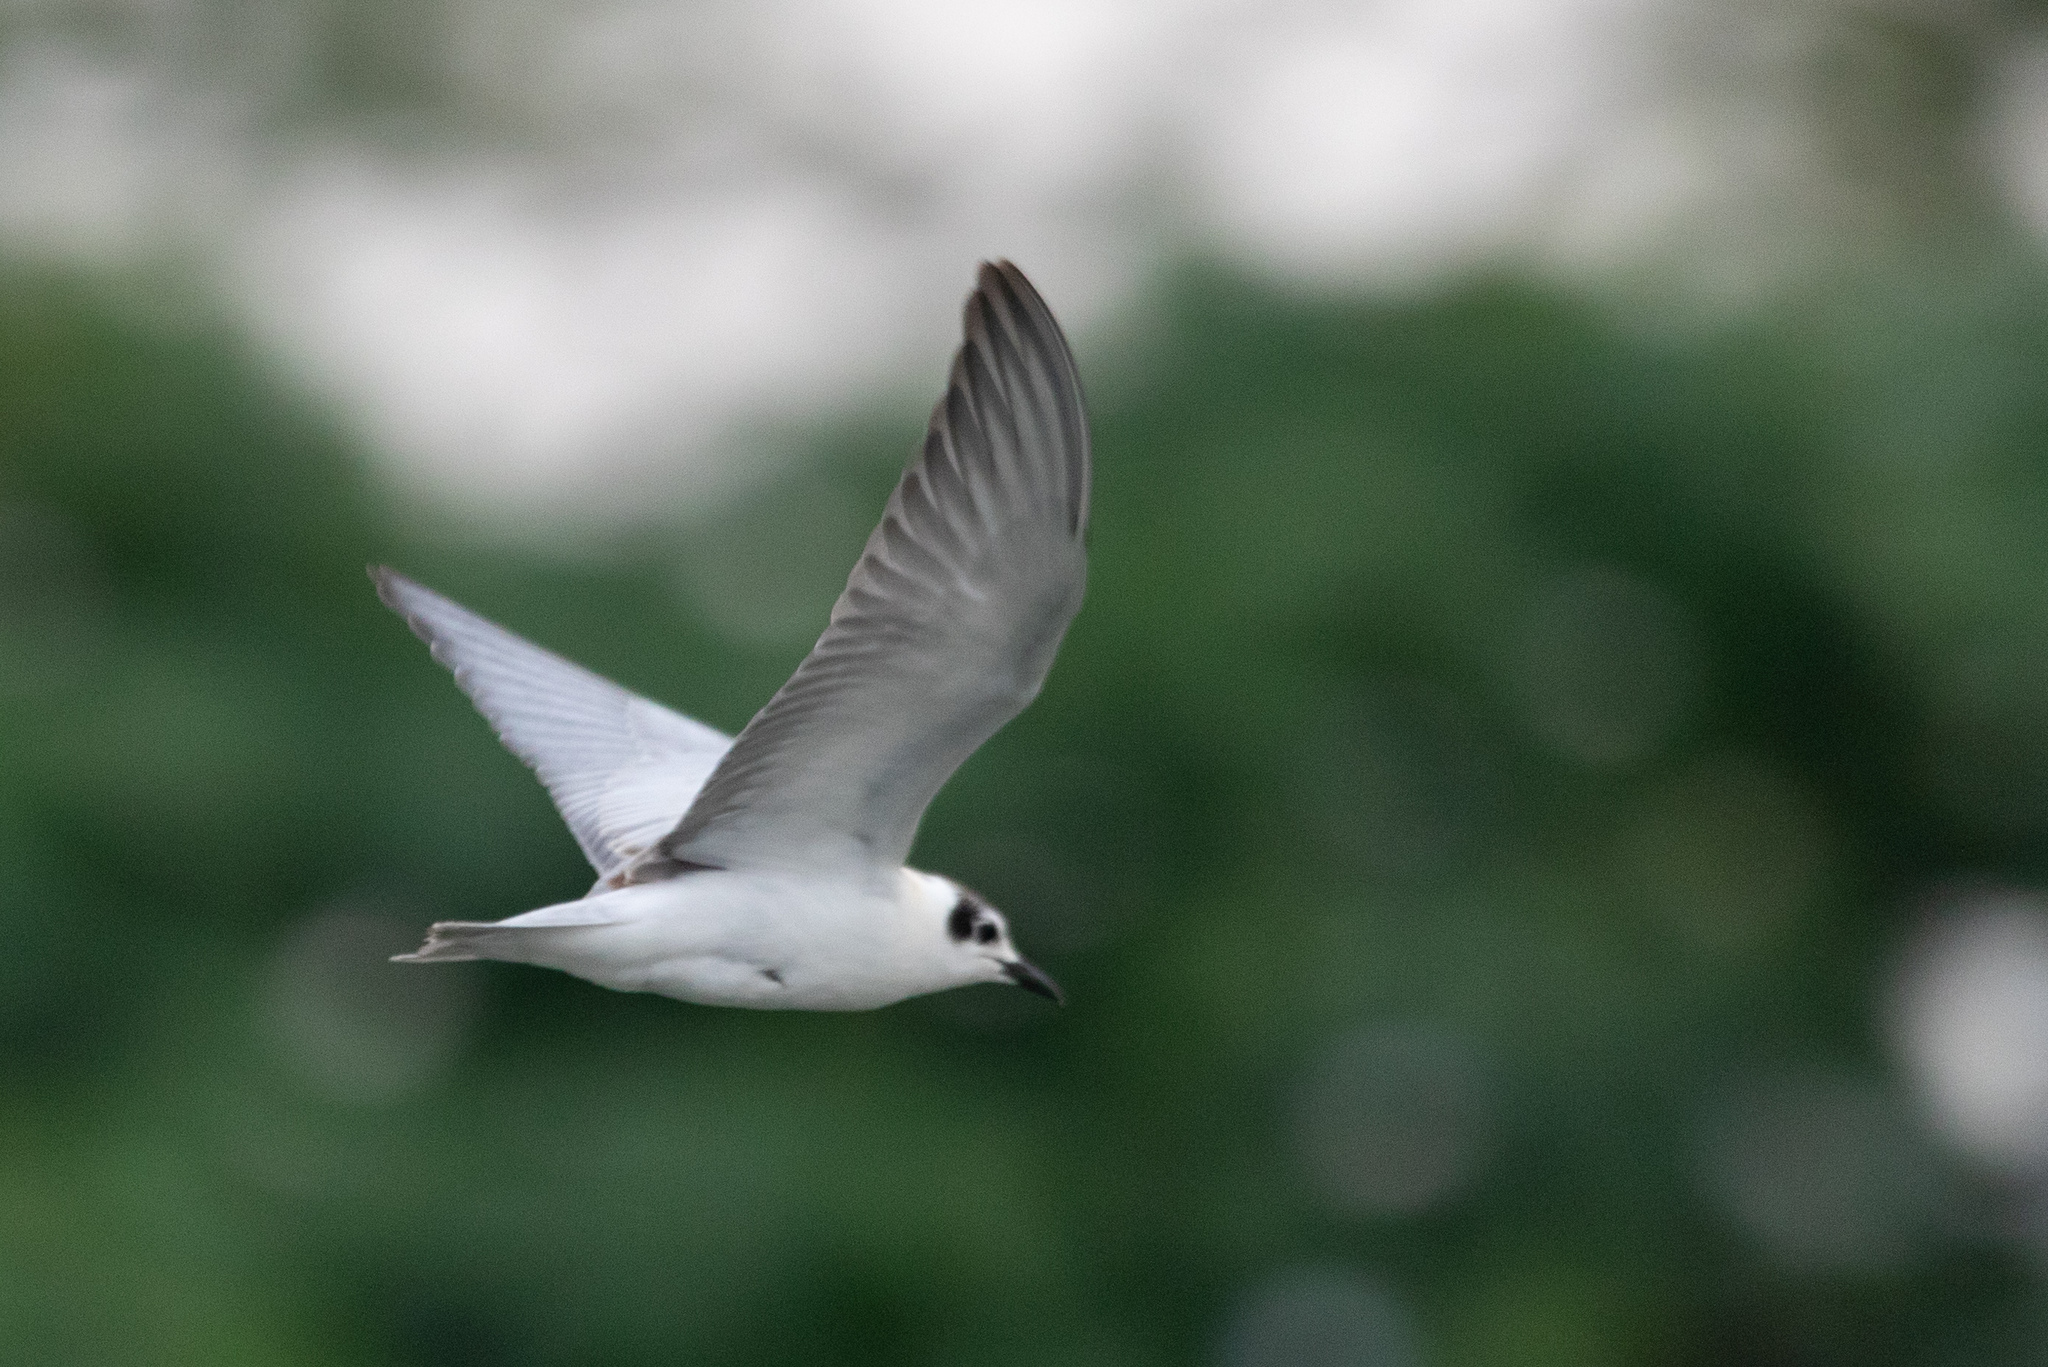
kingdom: Animalia
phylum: Chordata
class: Aves
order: Charadriiformes
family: Laridae
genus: Chlidonias
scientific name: Chlidonias leucopterus
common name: White-winged tern
